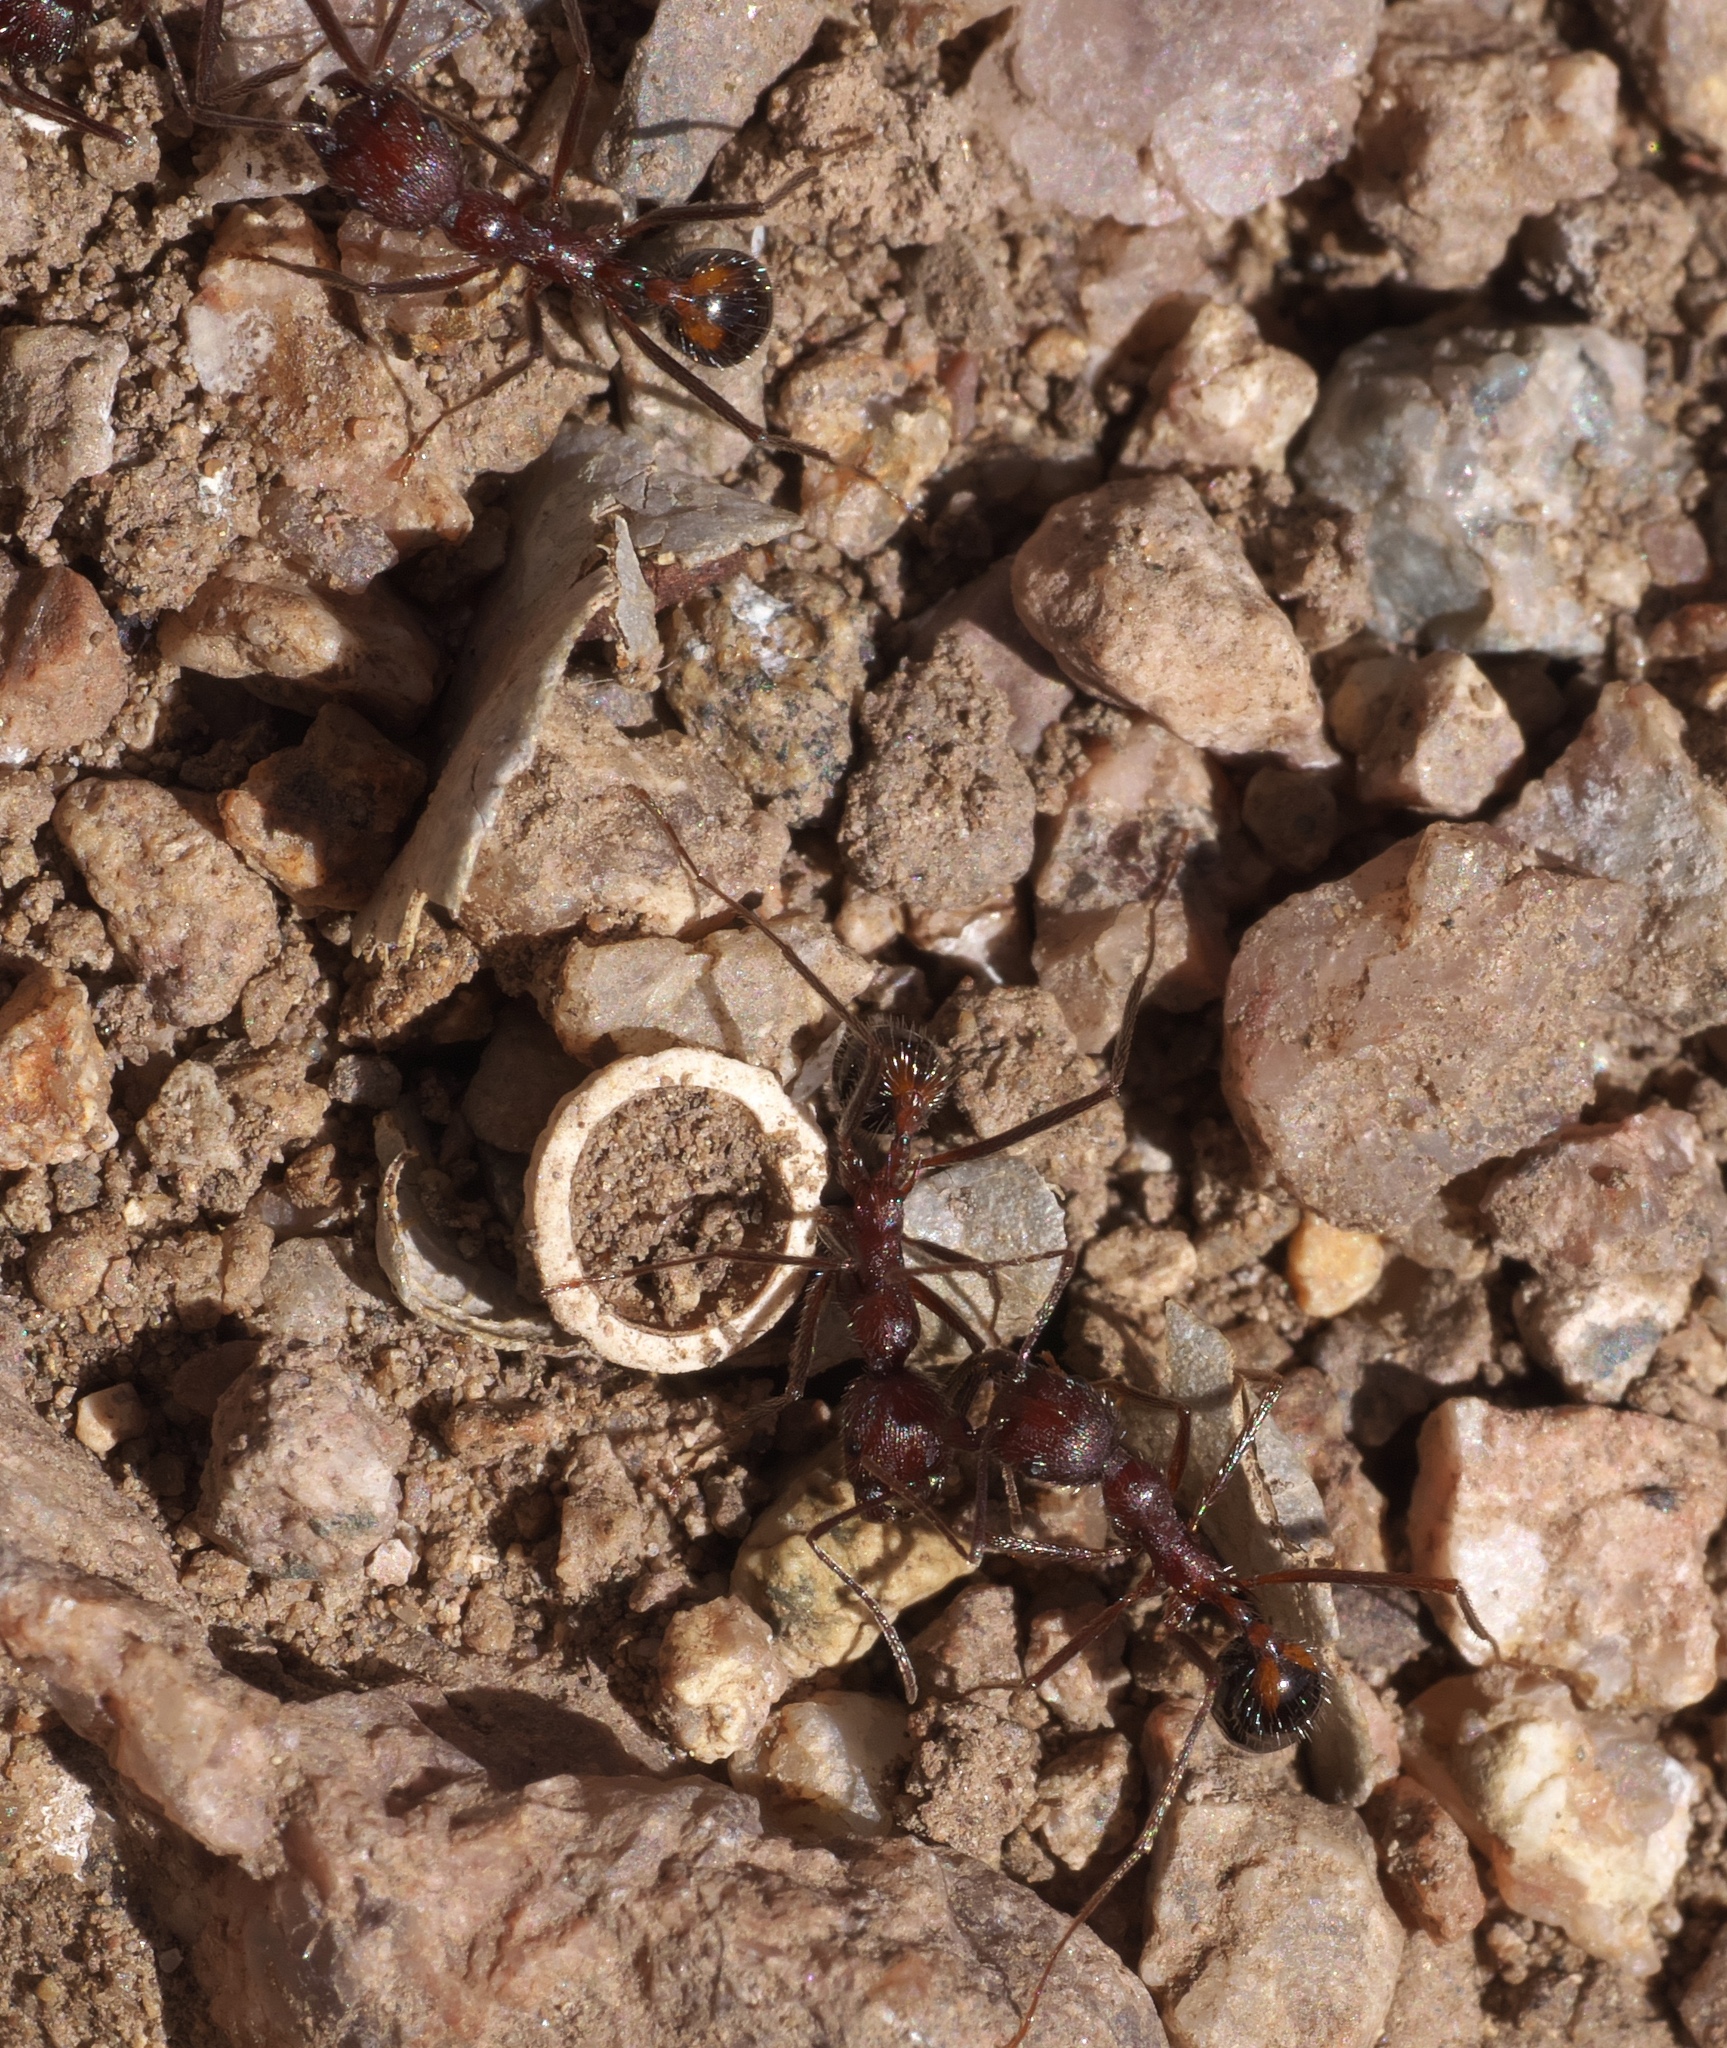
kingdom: Animalia
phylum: Arthropoda
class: Insecta
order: Hymenoptera
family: Formicidae
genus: Novomessor
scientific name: Novomessor albisetosa
